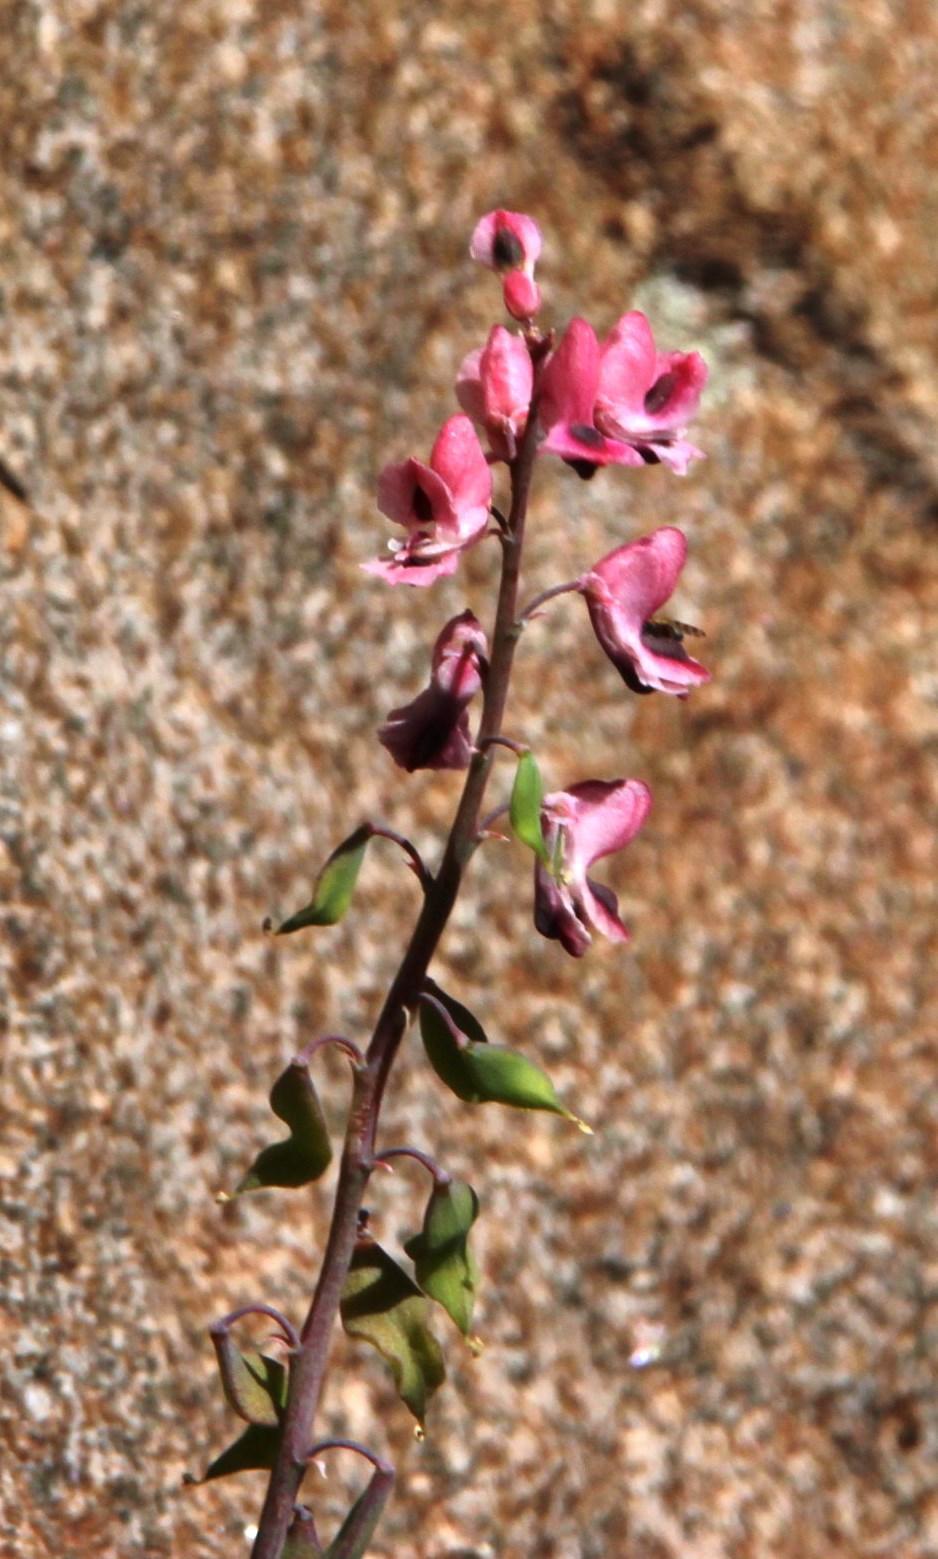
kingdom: Plantae
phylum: Tracheophyta
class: Magnoliopsida
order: Ranunculales
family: Papaveraceae
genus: Cysticapnos
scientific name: Cysticapnos pruinosa
